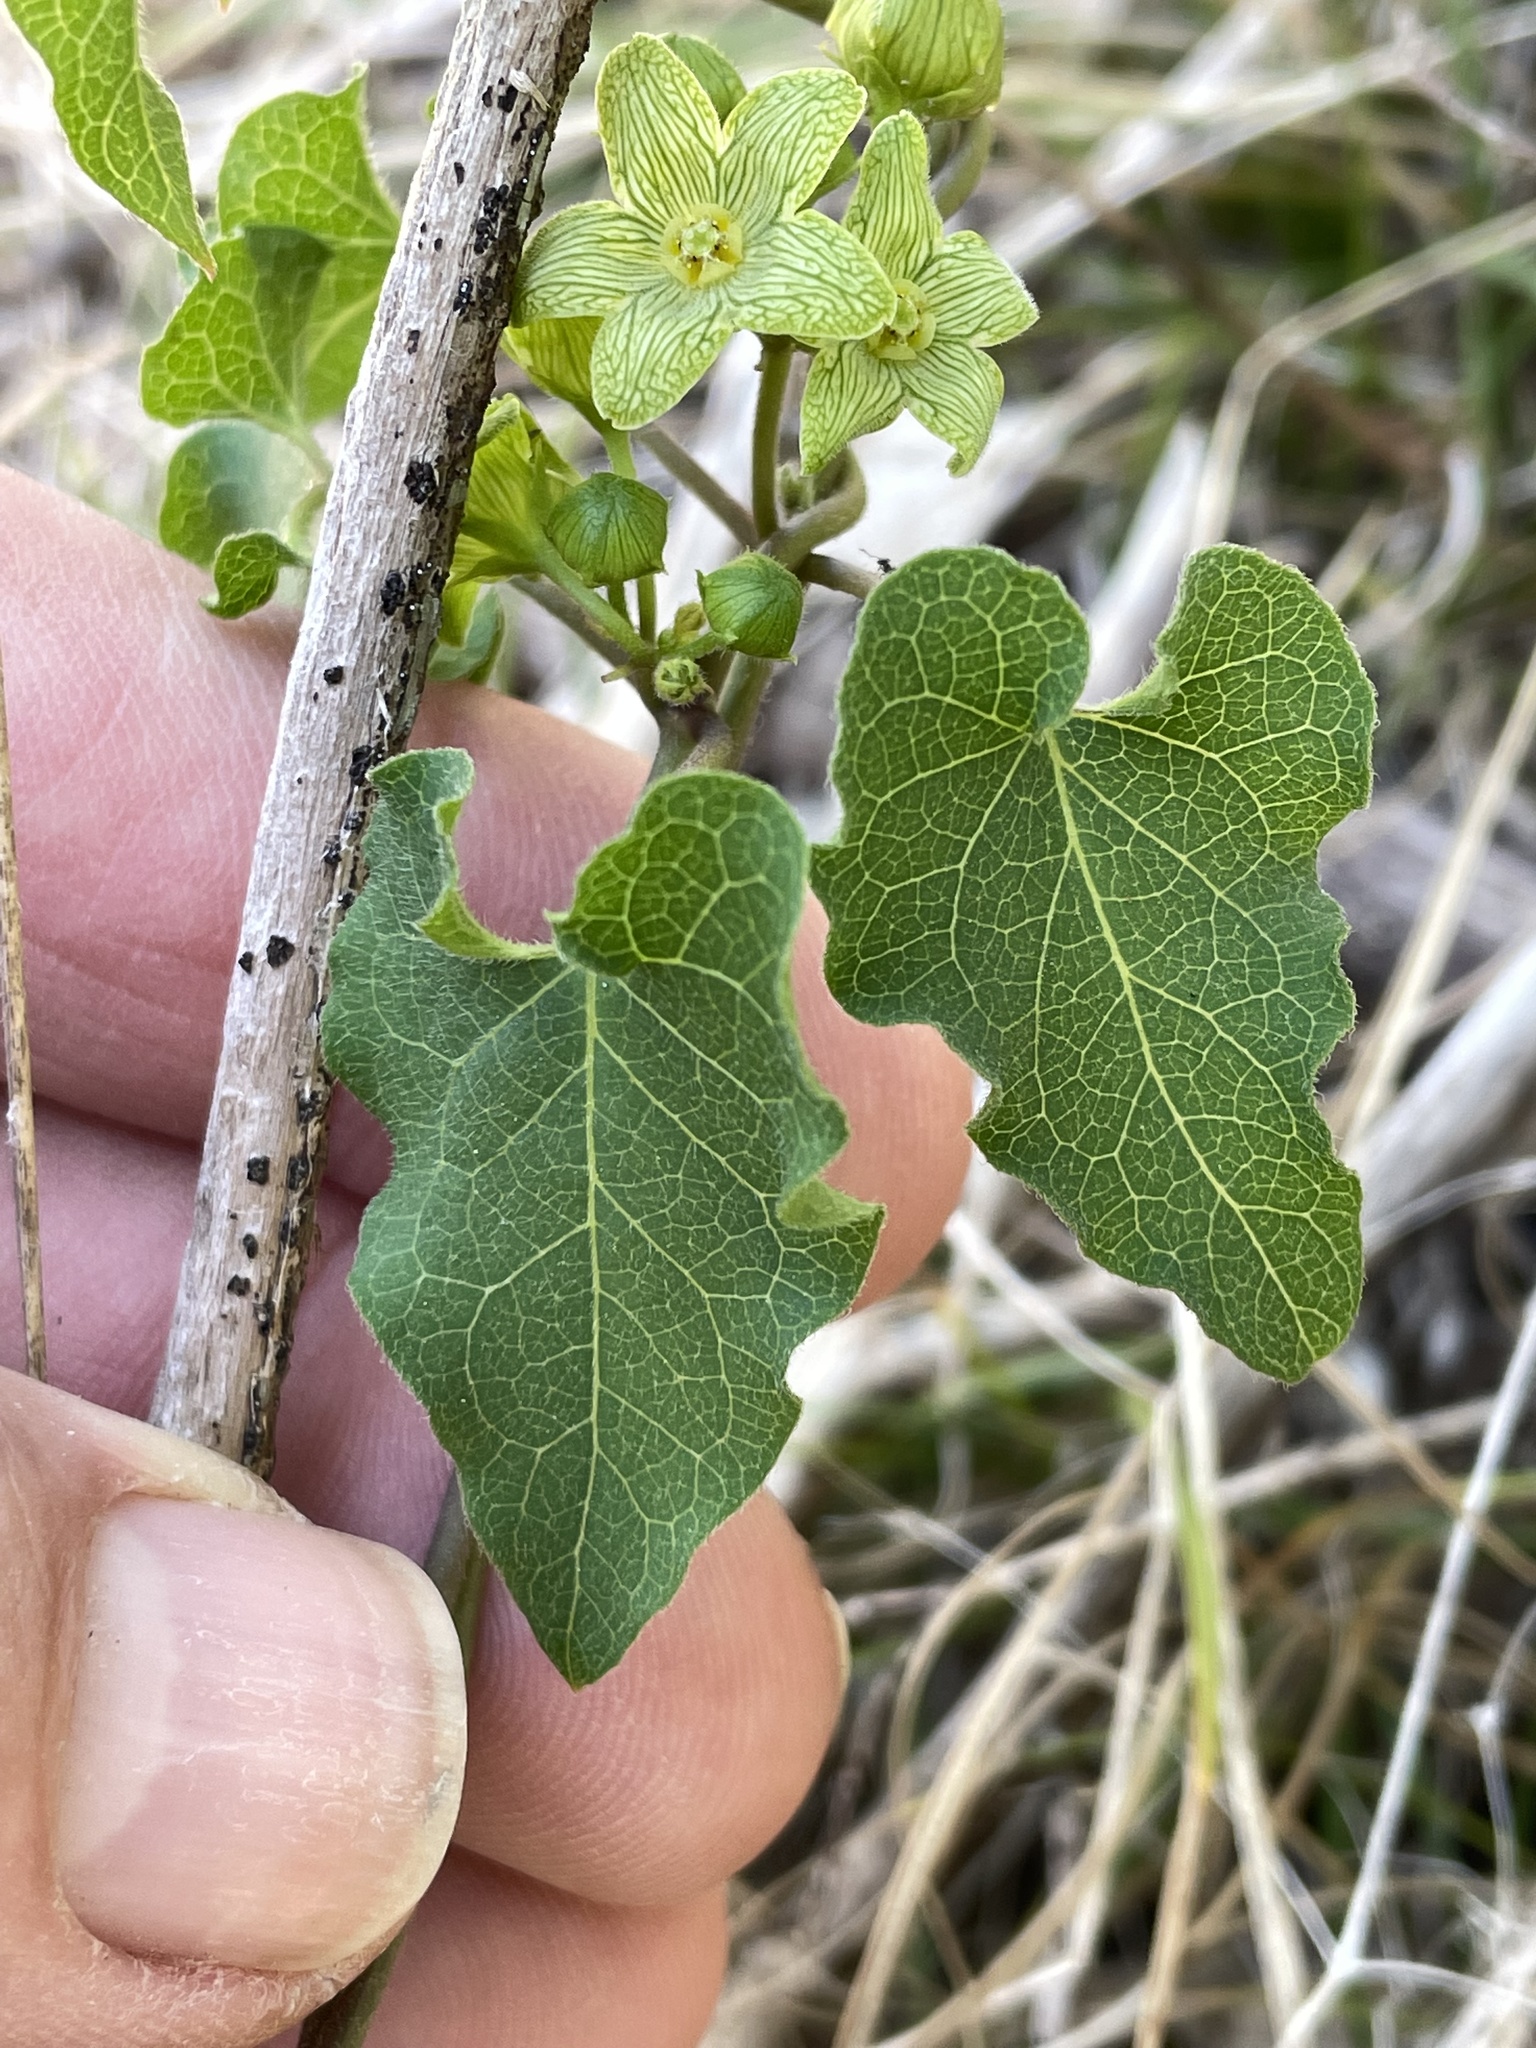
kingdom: Plantae
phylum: Tracheophyta
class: Magnoliopsida
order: Gentianales
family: Apocynaceae
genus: Matelea
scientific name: Matelea edwardsensis
